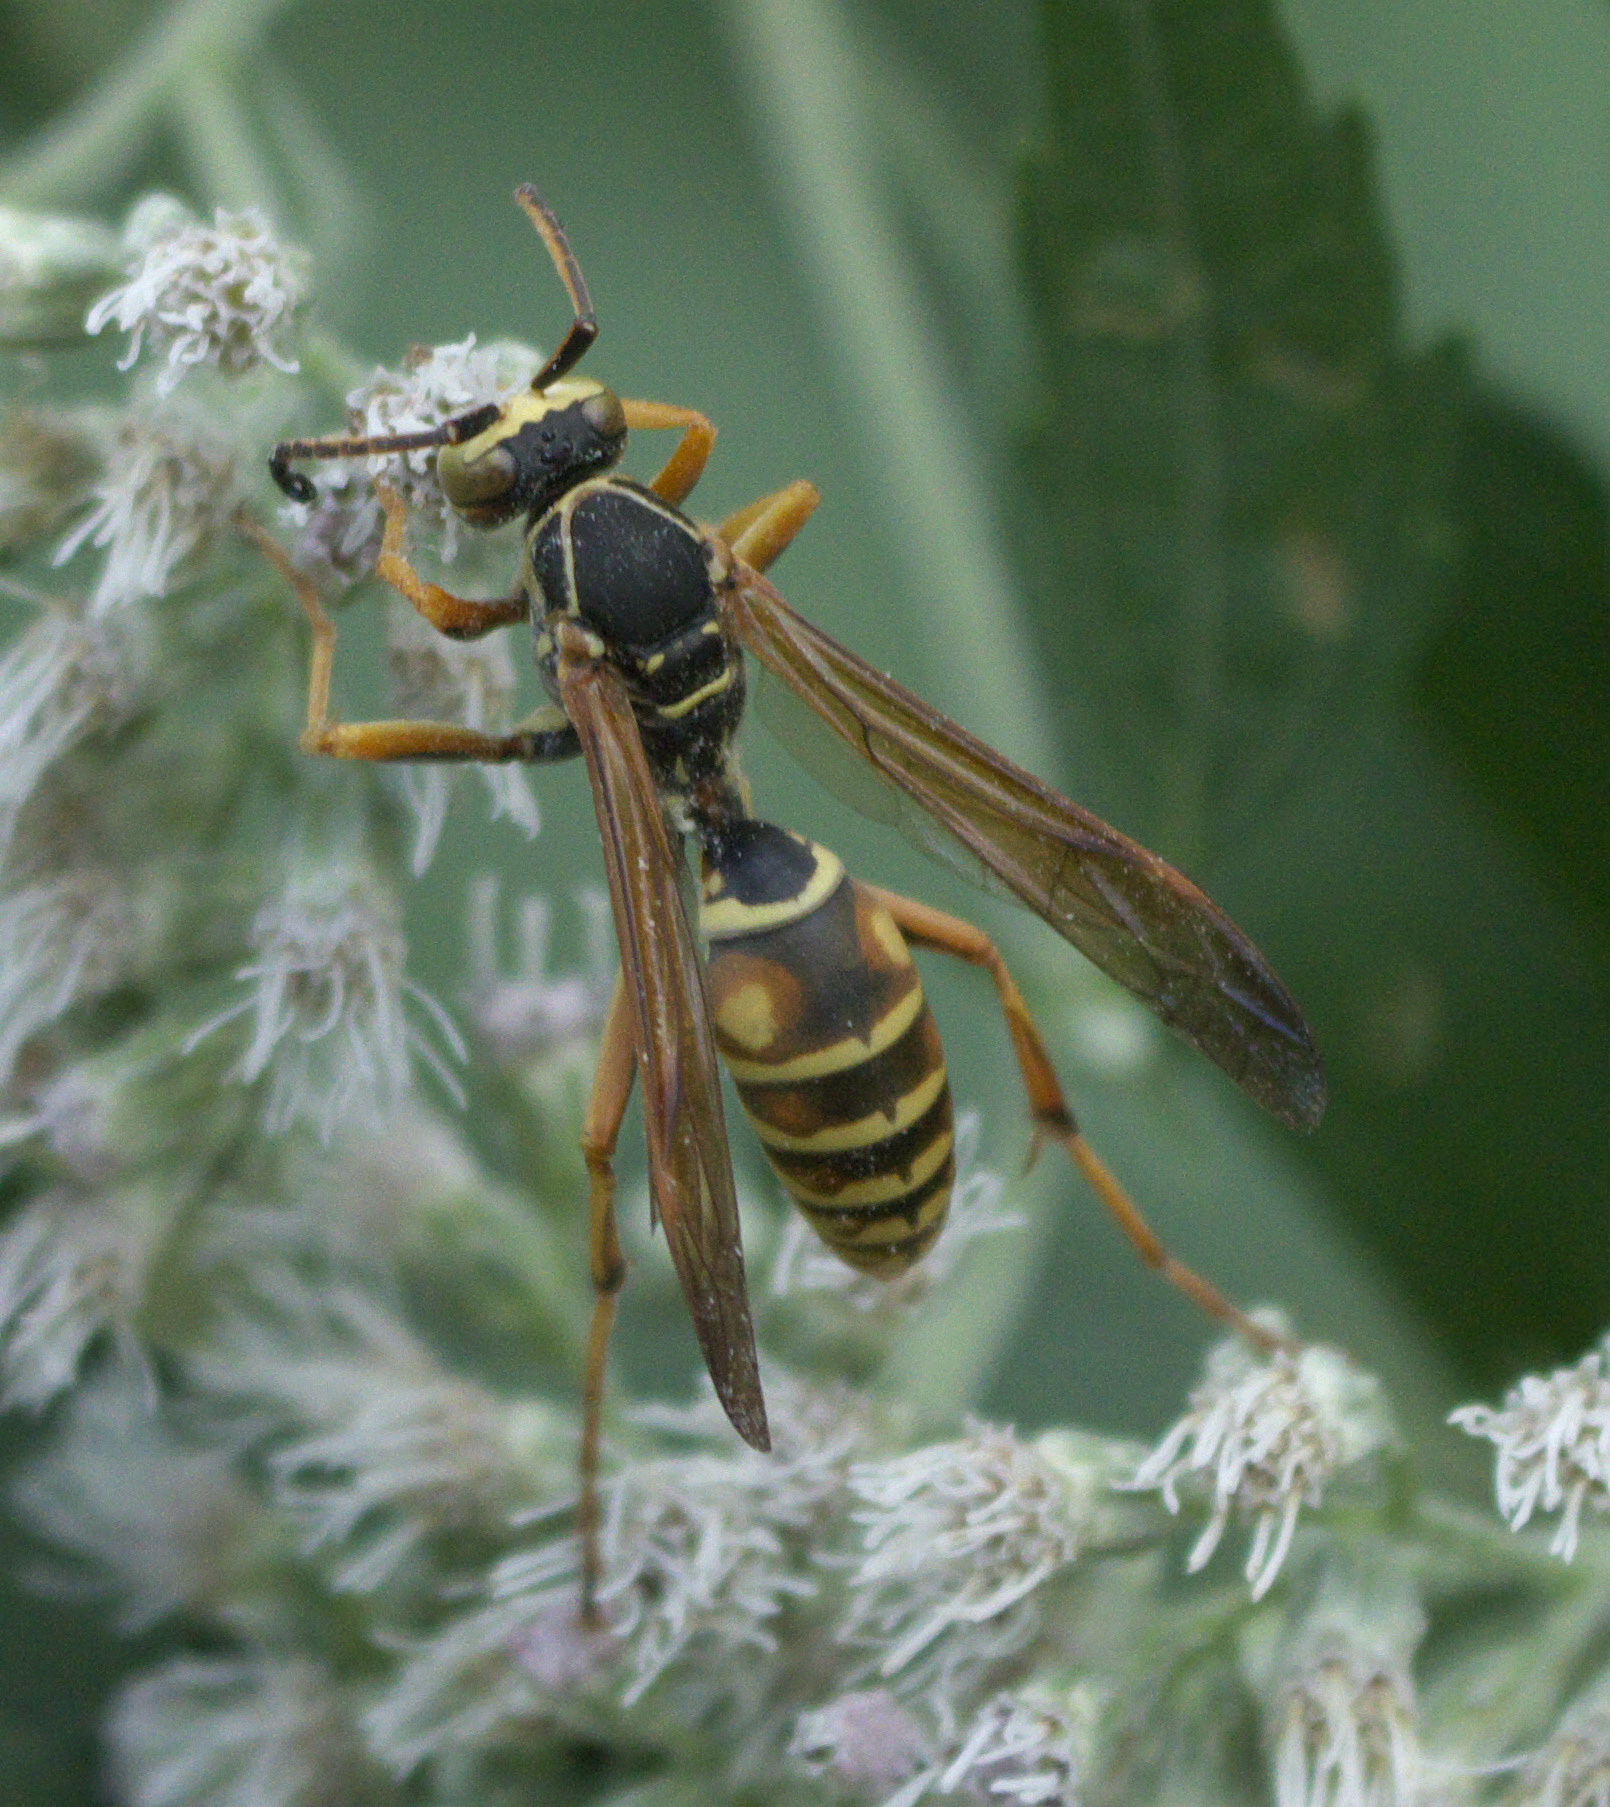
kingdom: Animalia
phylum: Arthropoda
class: Insecta
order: Hymenoptera
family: Eumenidae
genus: Polistes
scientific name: Polistes fuscatus
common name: Dark paper wasp
